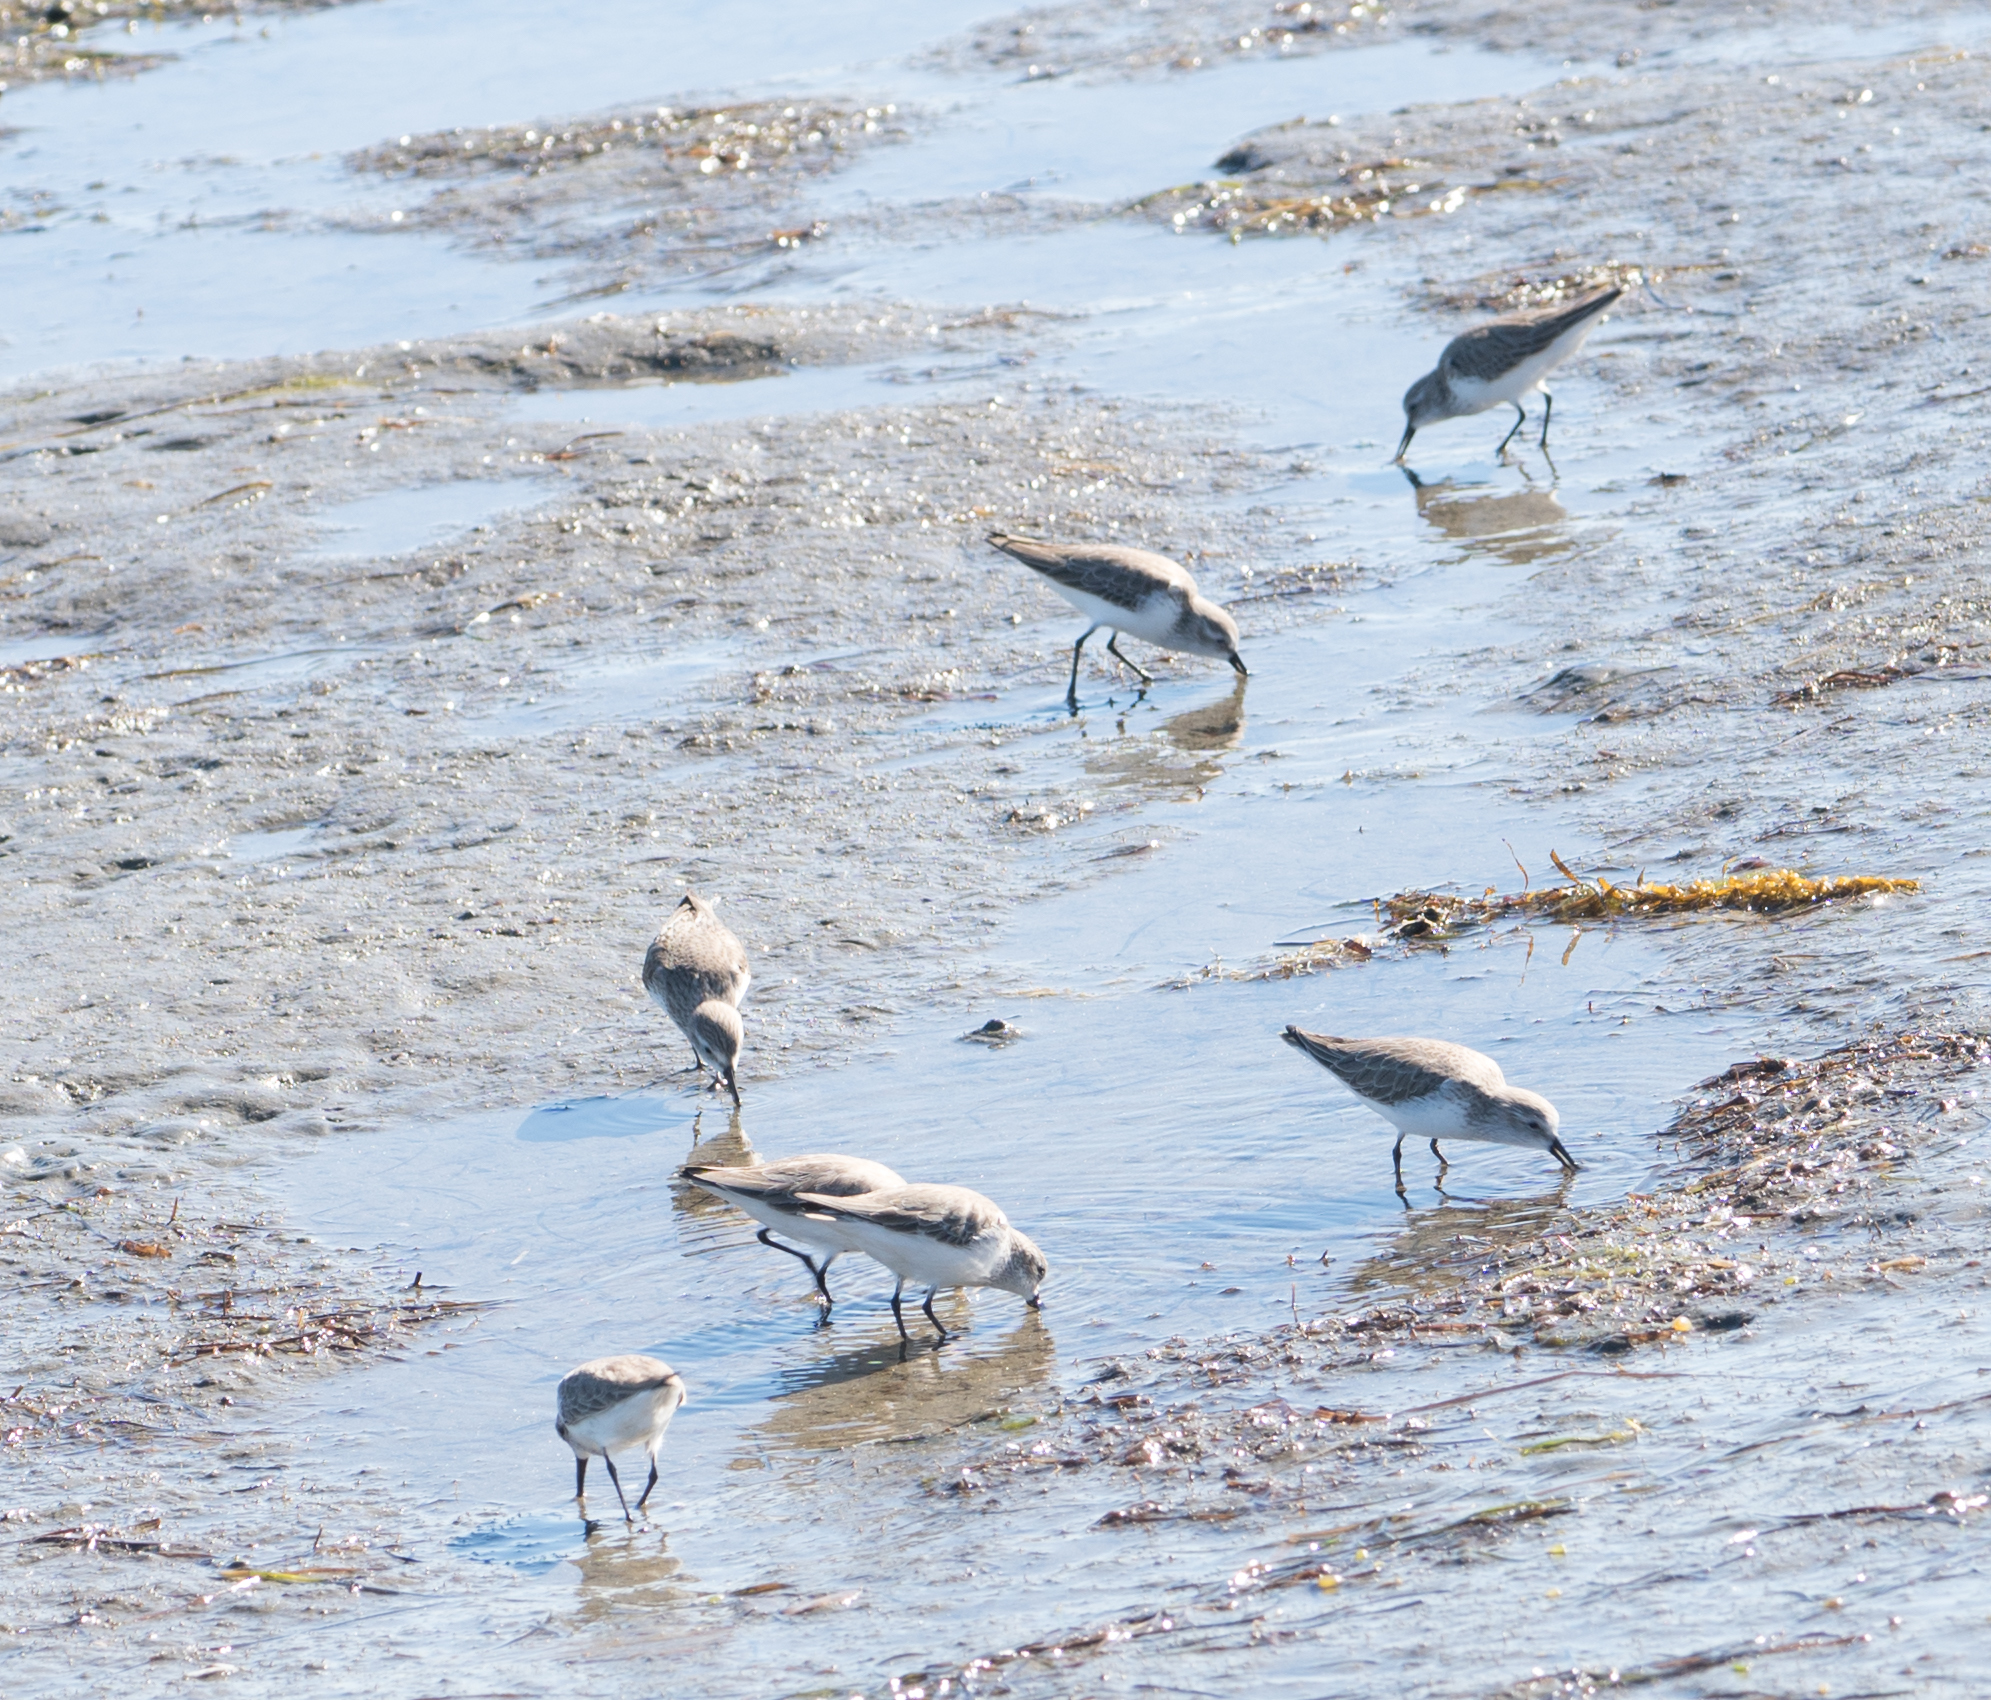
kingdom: Animalia
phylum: Chordata
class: Aves
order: Charadriiformes
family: Scolopacidae
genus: Calidris
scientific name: Calidris mauri
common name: Western sandpiper
